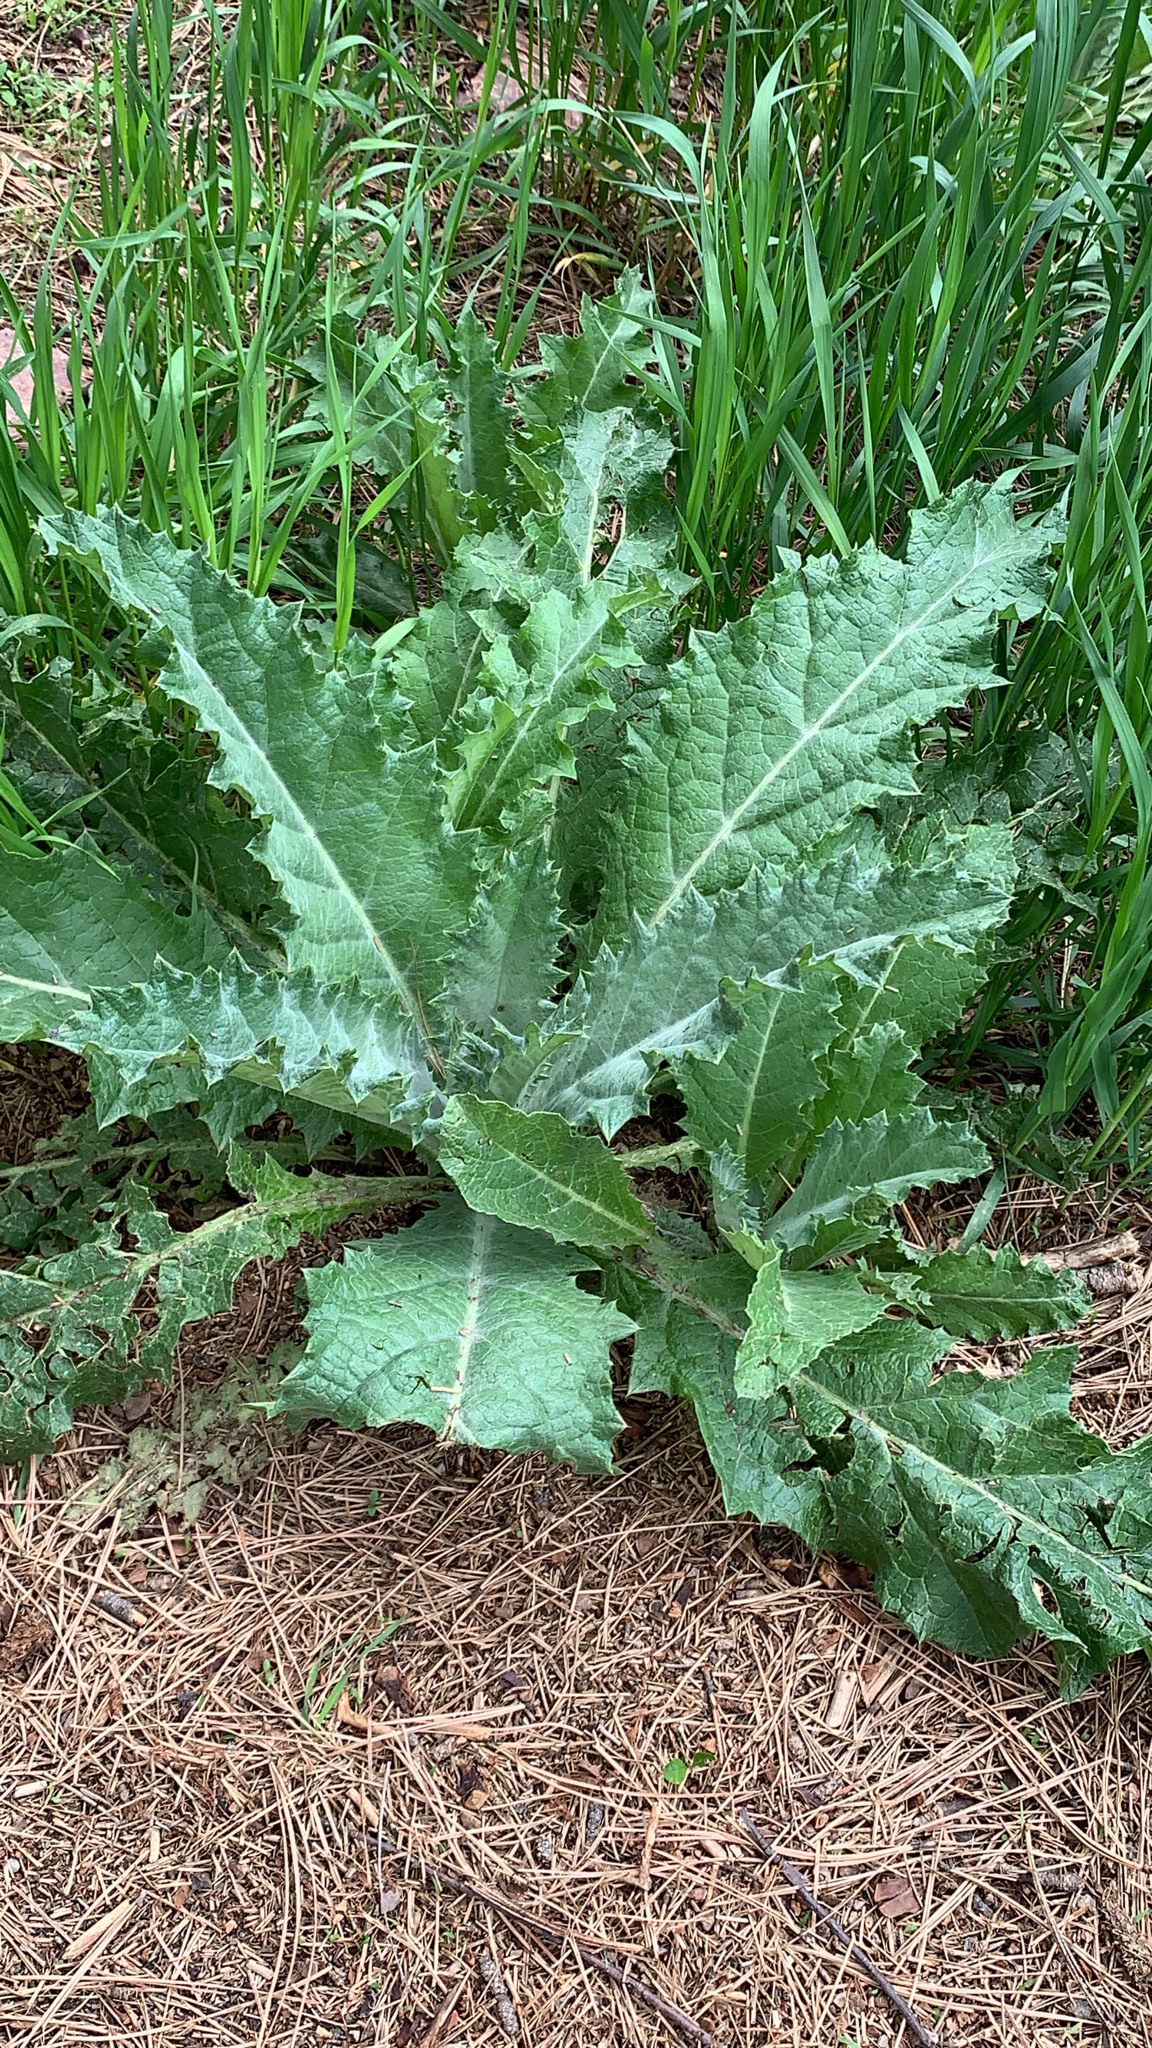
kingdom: Plantae
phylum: Tracheophyta
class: Magnoliopsida
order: Asterales
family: Asteraceae
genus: Onopordum
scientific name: Onopordum acanthium
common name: Scotch thistle
